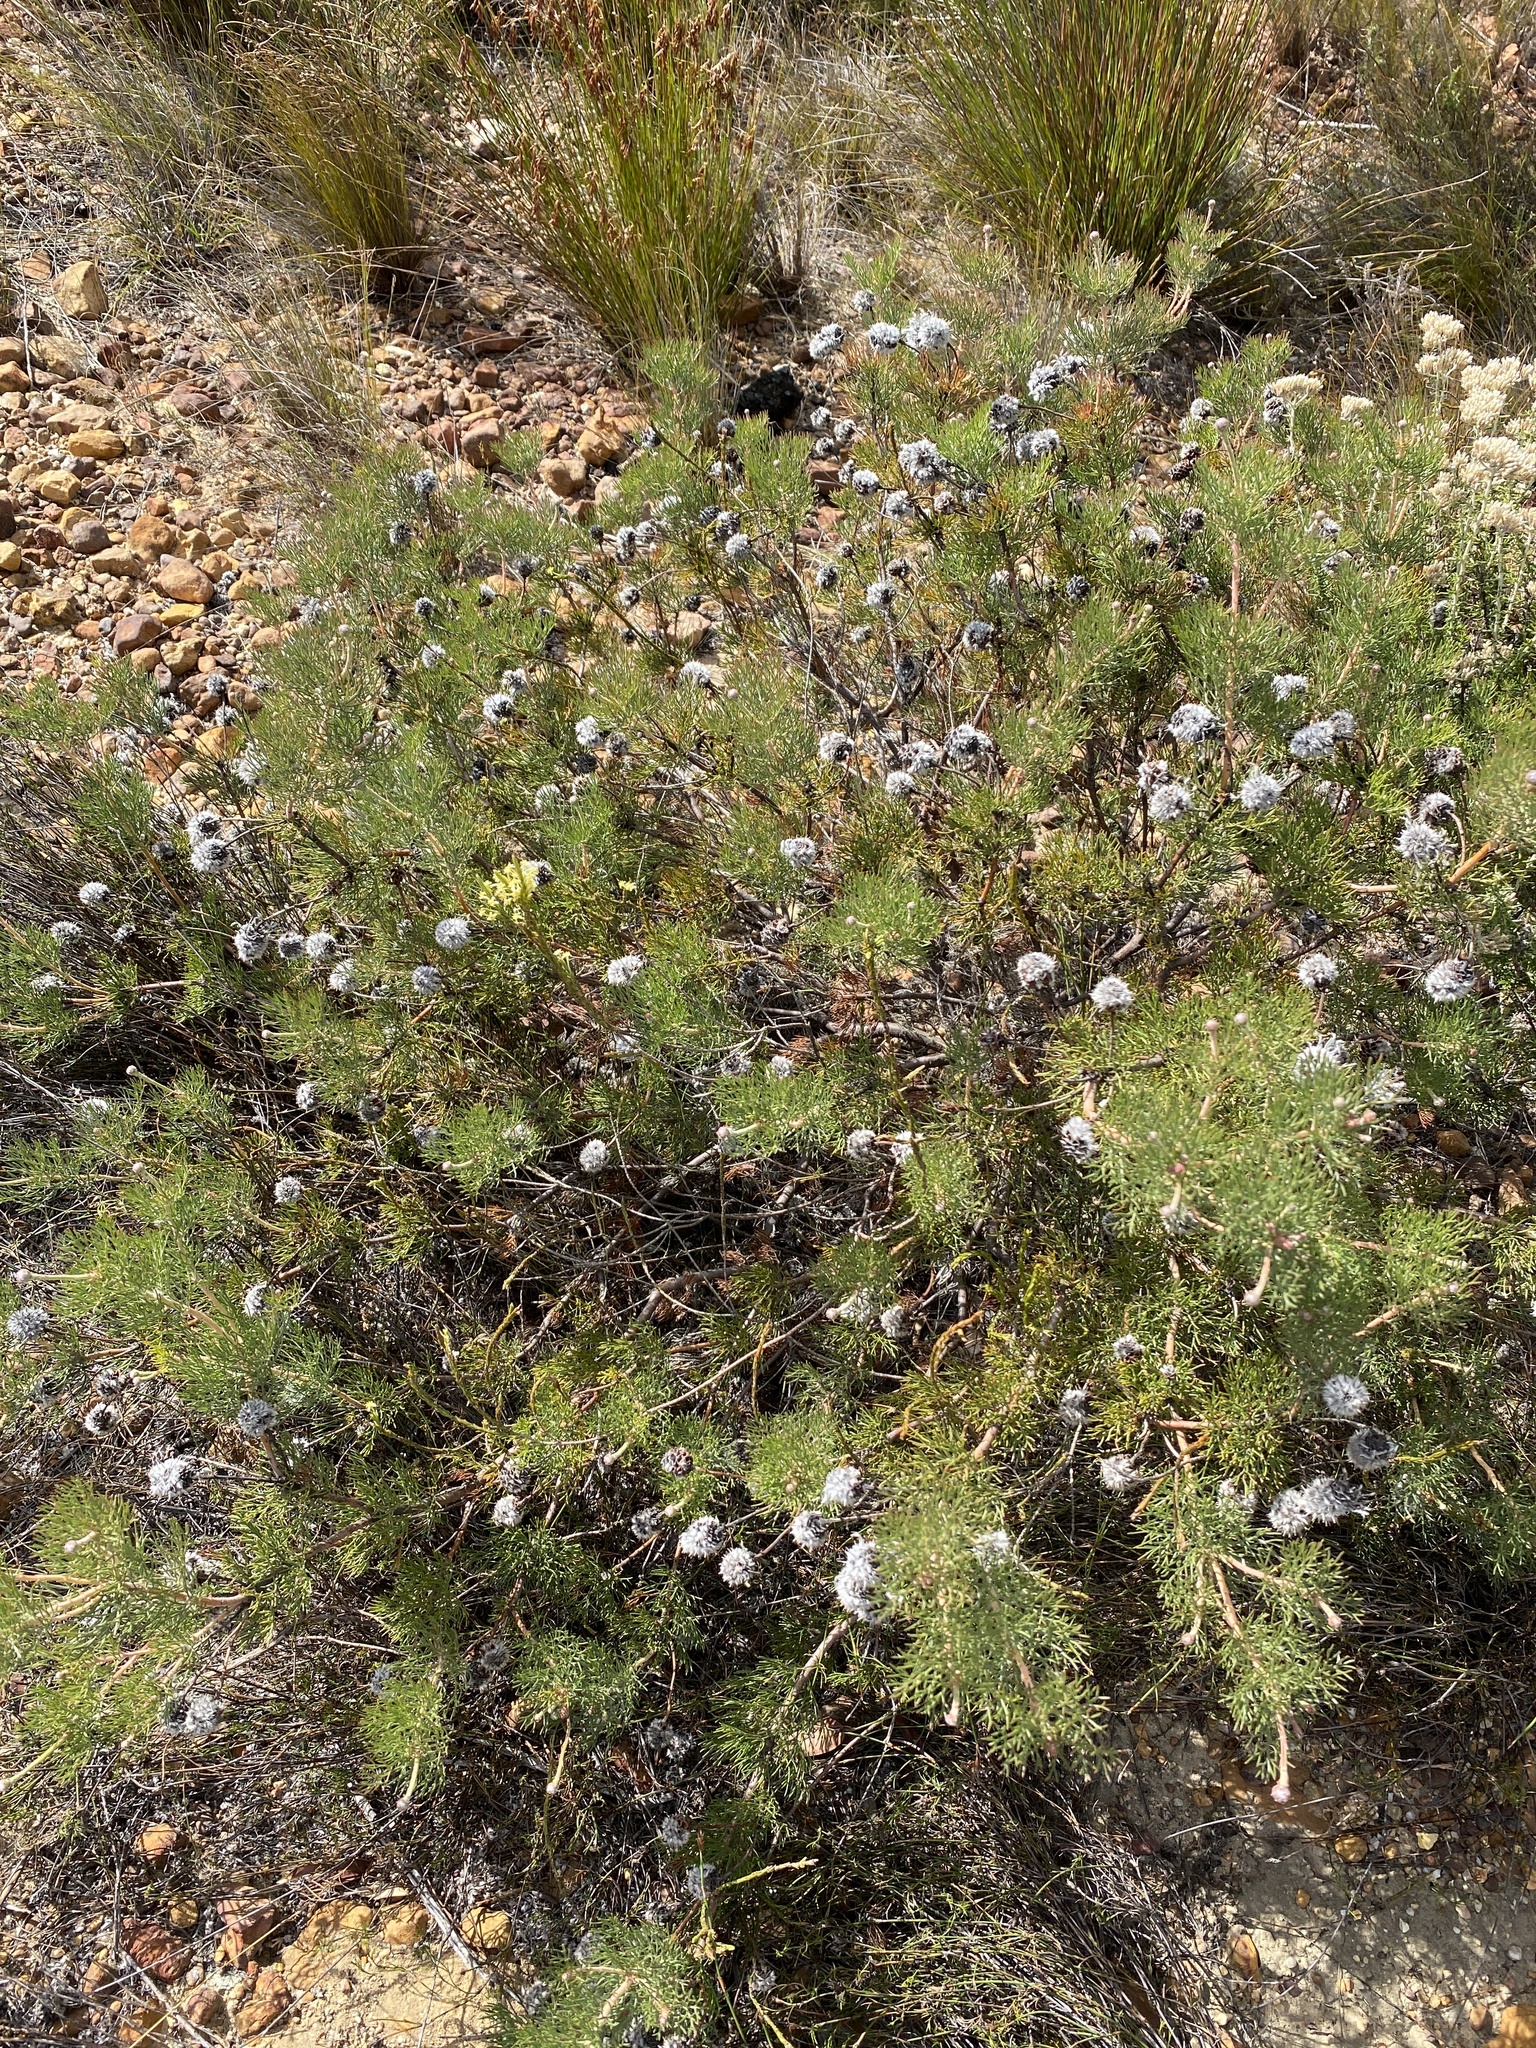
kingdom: Plantae
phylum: Tracheophyta
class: Magnoliopsida
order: Proteales
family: Proteaceae
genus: Serruria
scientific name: Serruria triternata
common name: Tulbagh spiderhead
